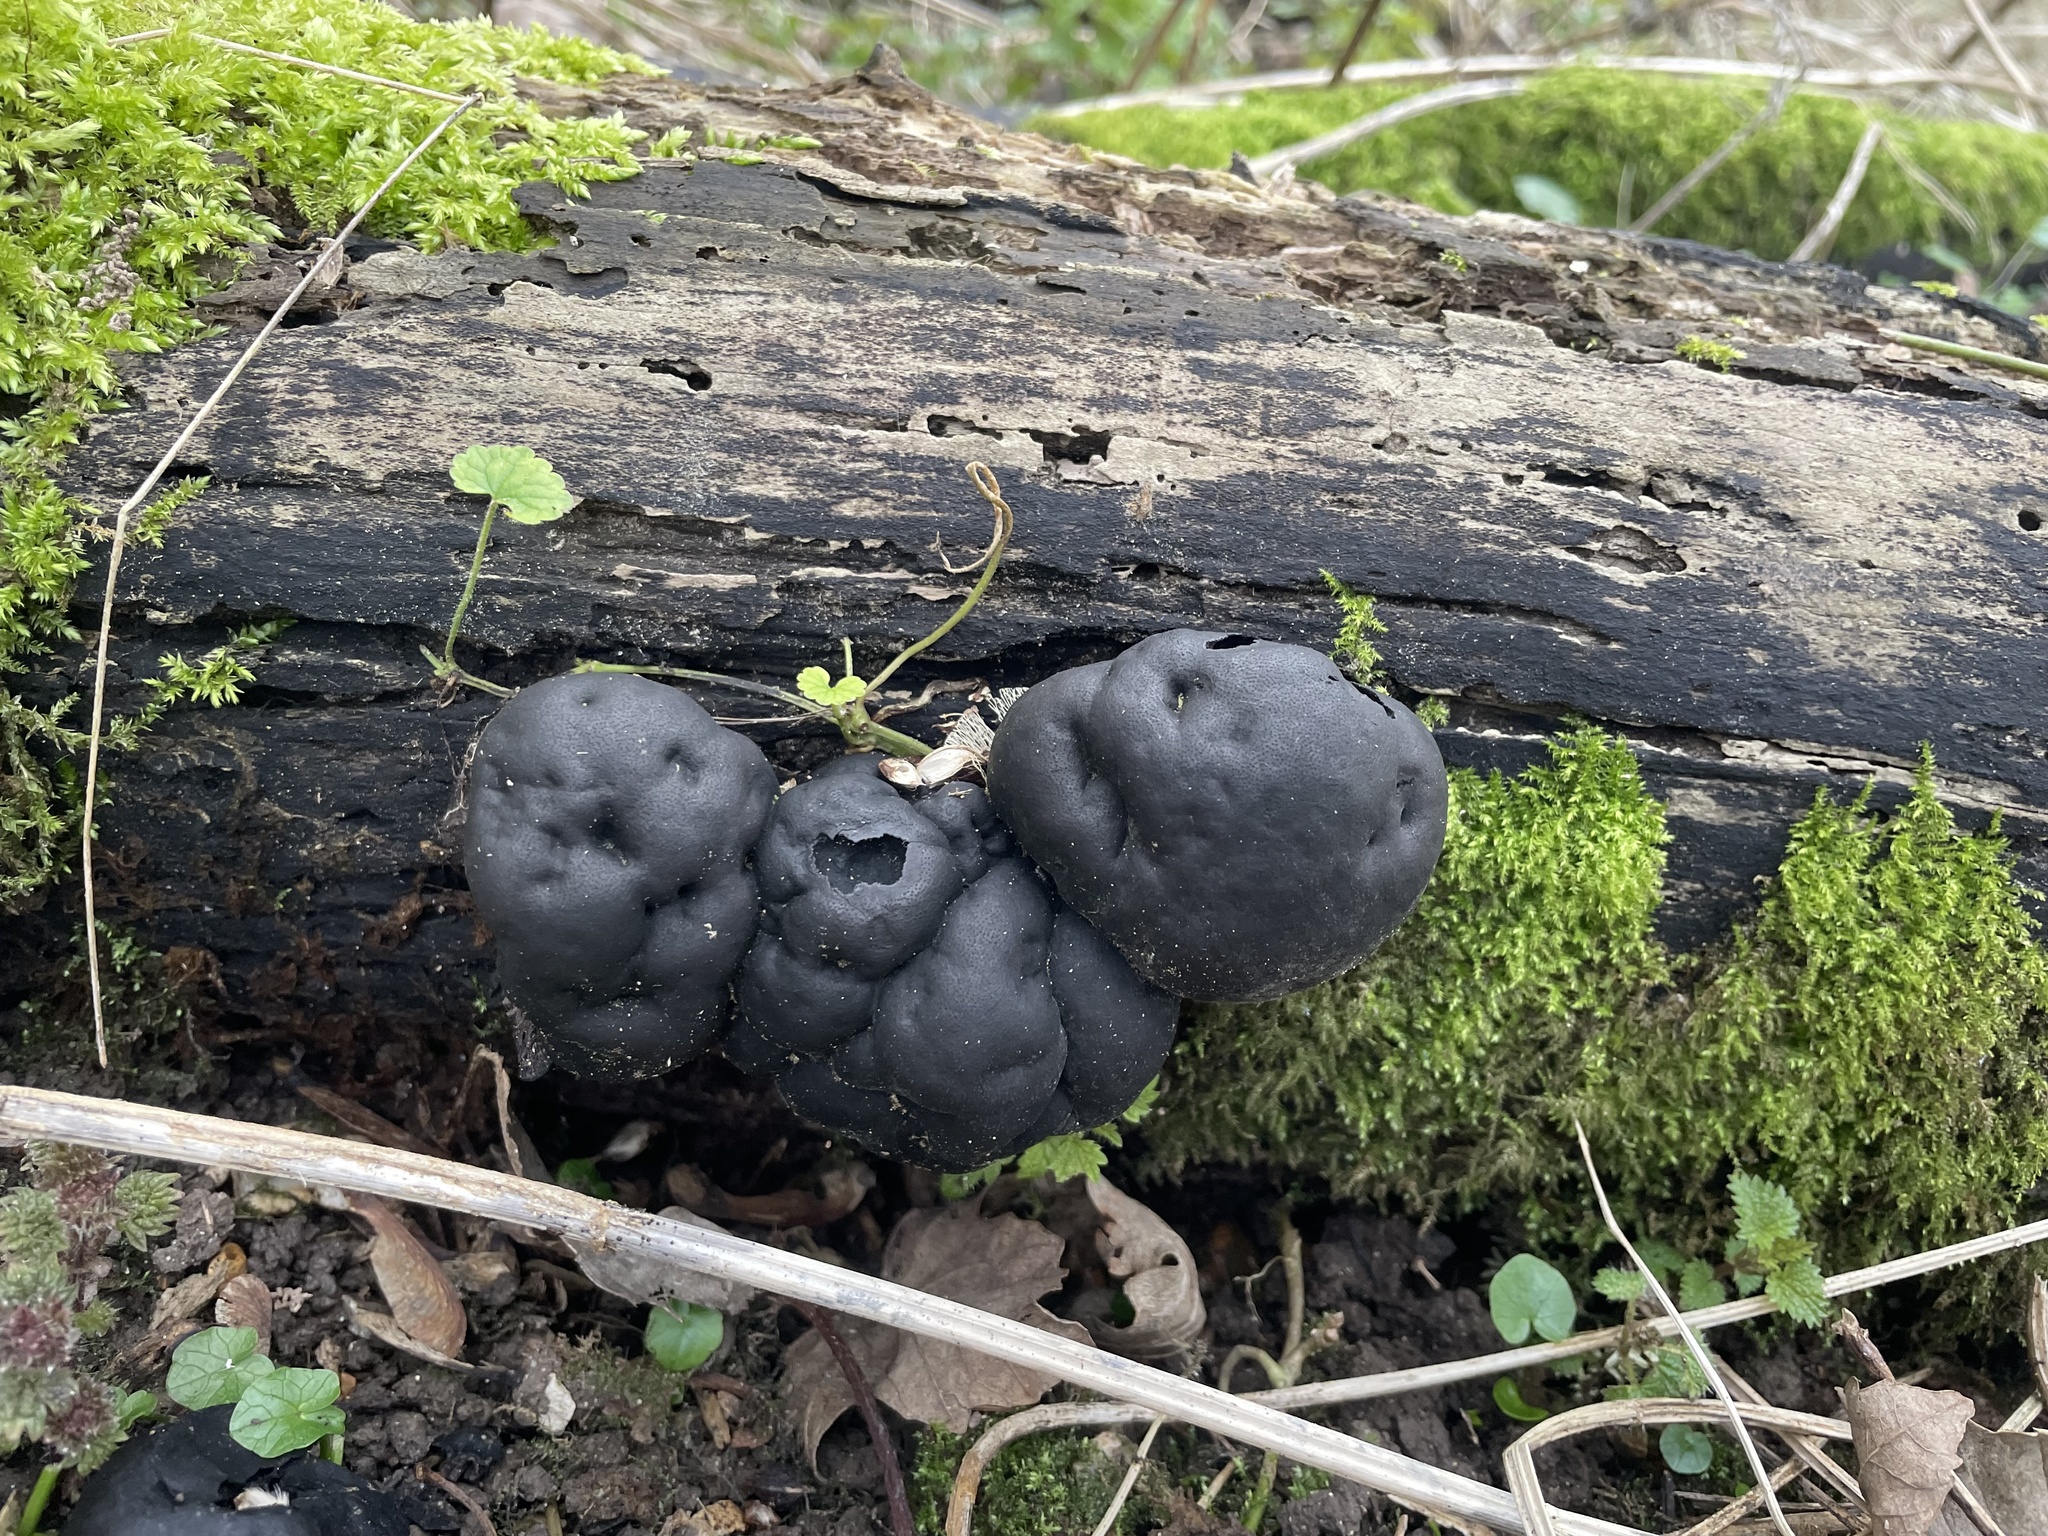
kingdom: Fungi
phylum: Ascomycota
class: Sordariomycetes
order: Xylariales
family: Hypoxylaceae
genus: Daldinia
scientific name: Daldinia concentrica
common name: Cramp balls
